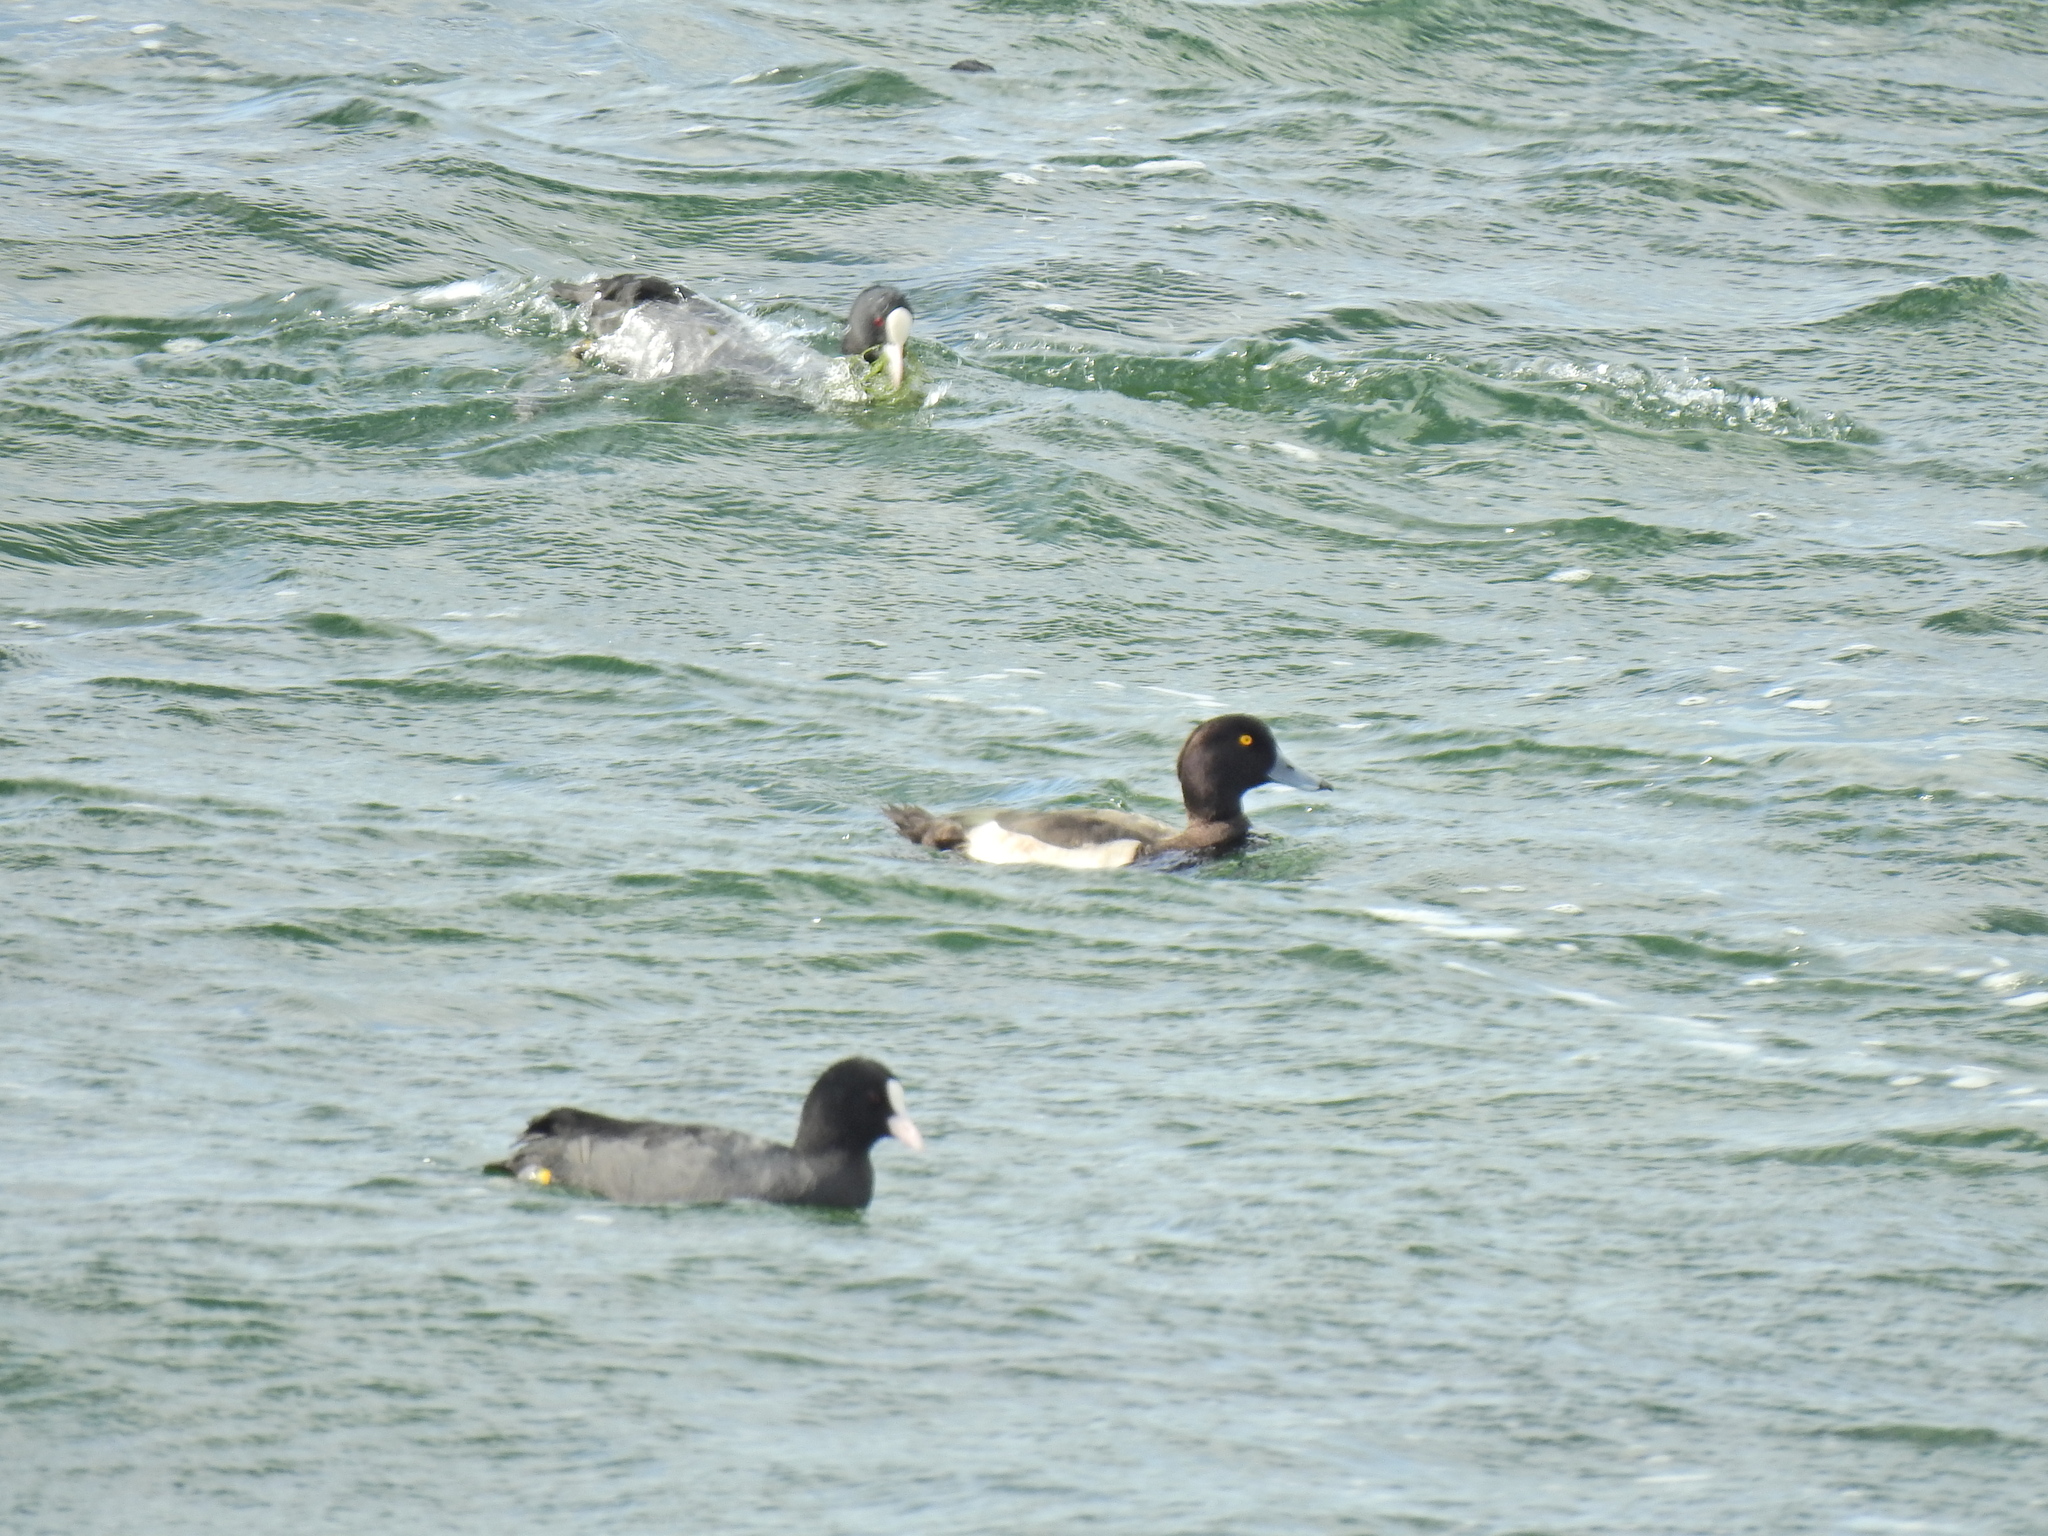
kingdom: Animalia
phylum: Chordata
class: Aves
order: Anseriformes
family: Anatidae
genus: Aythya
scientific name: Aythya fuligula
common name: Tufted duck
